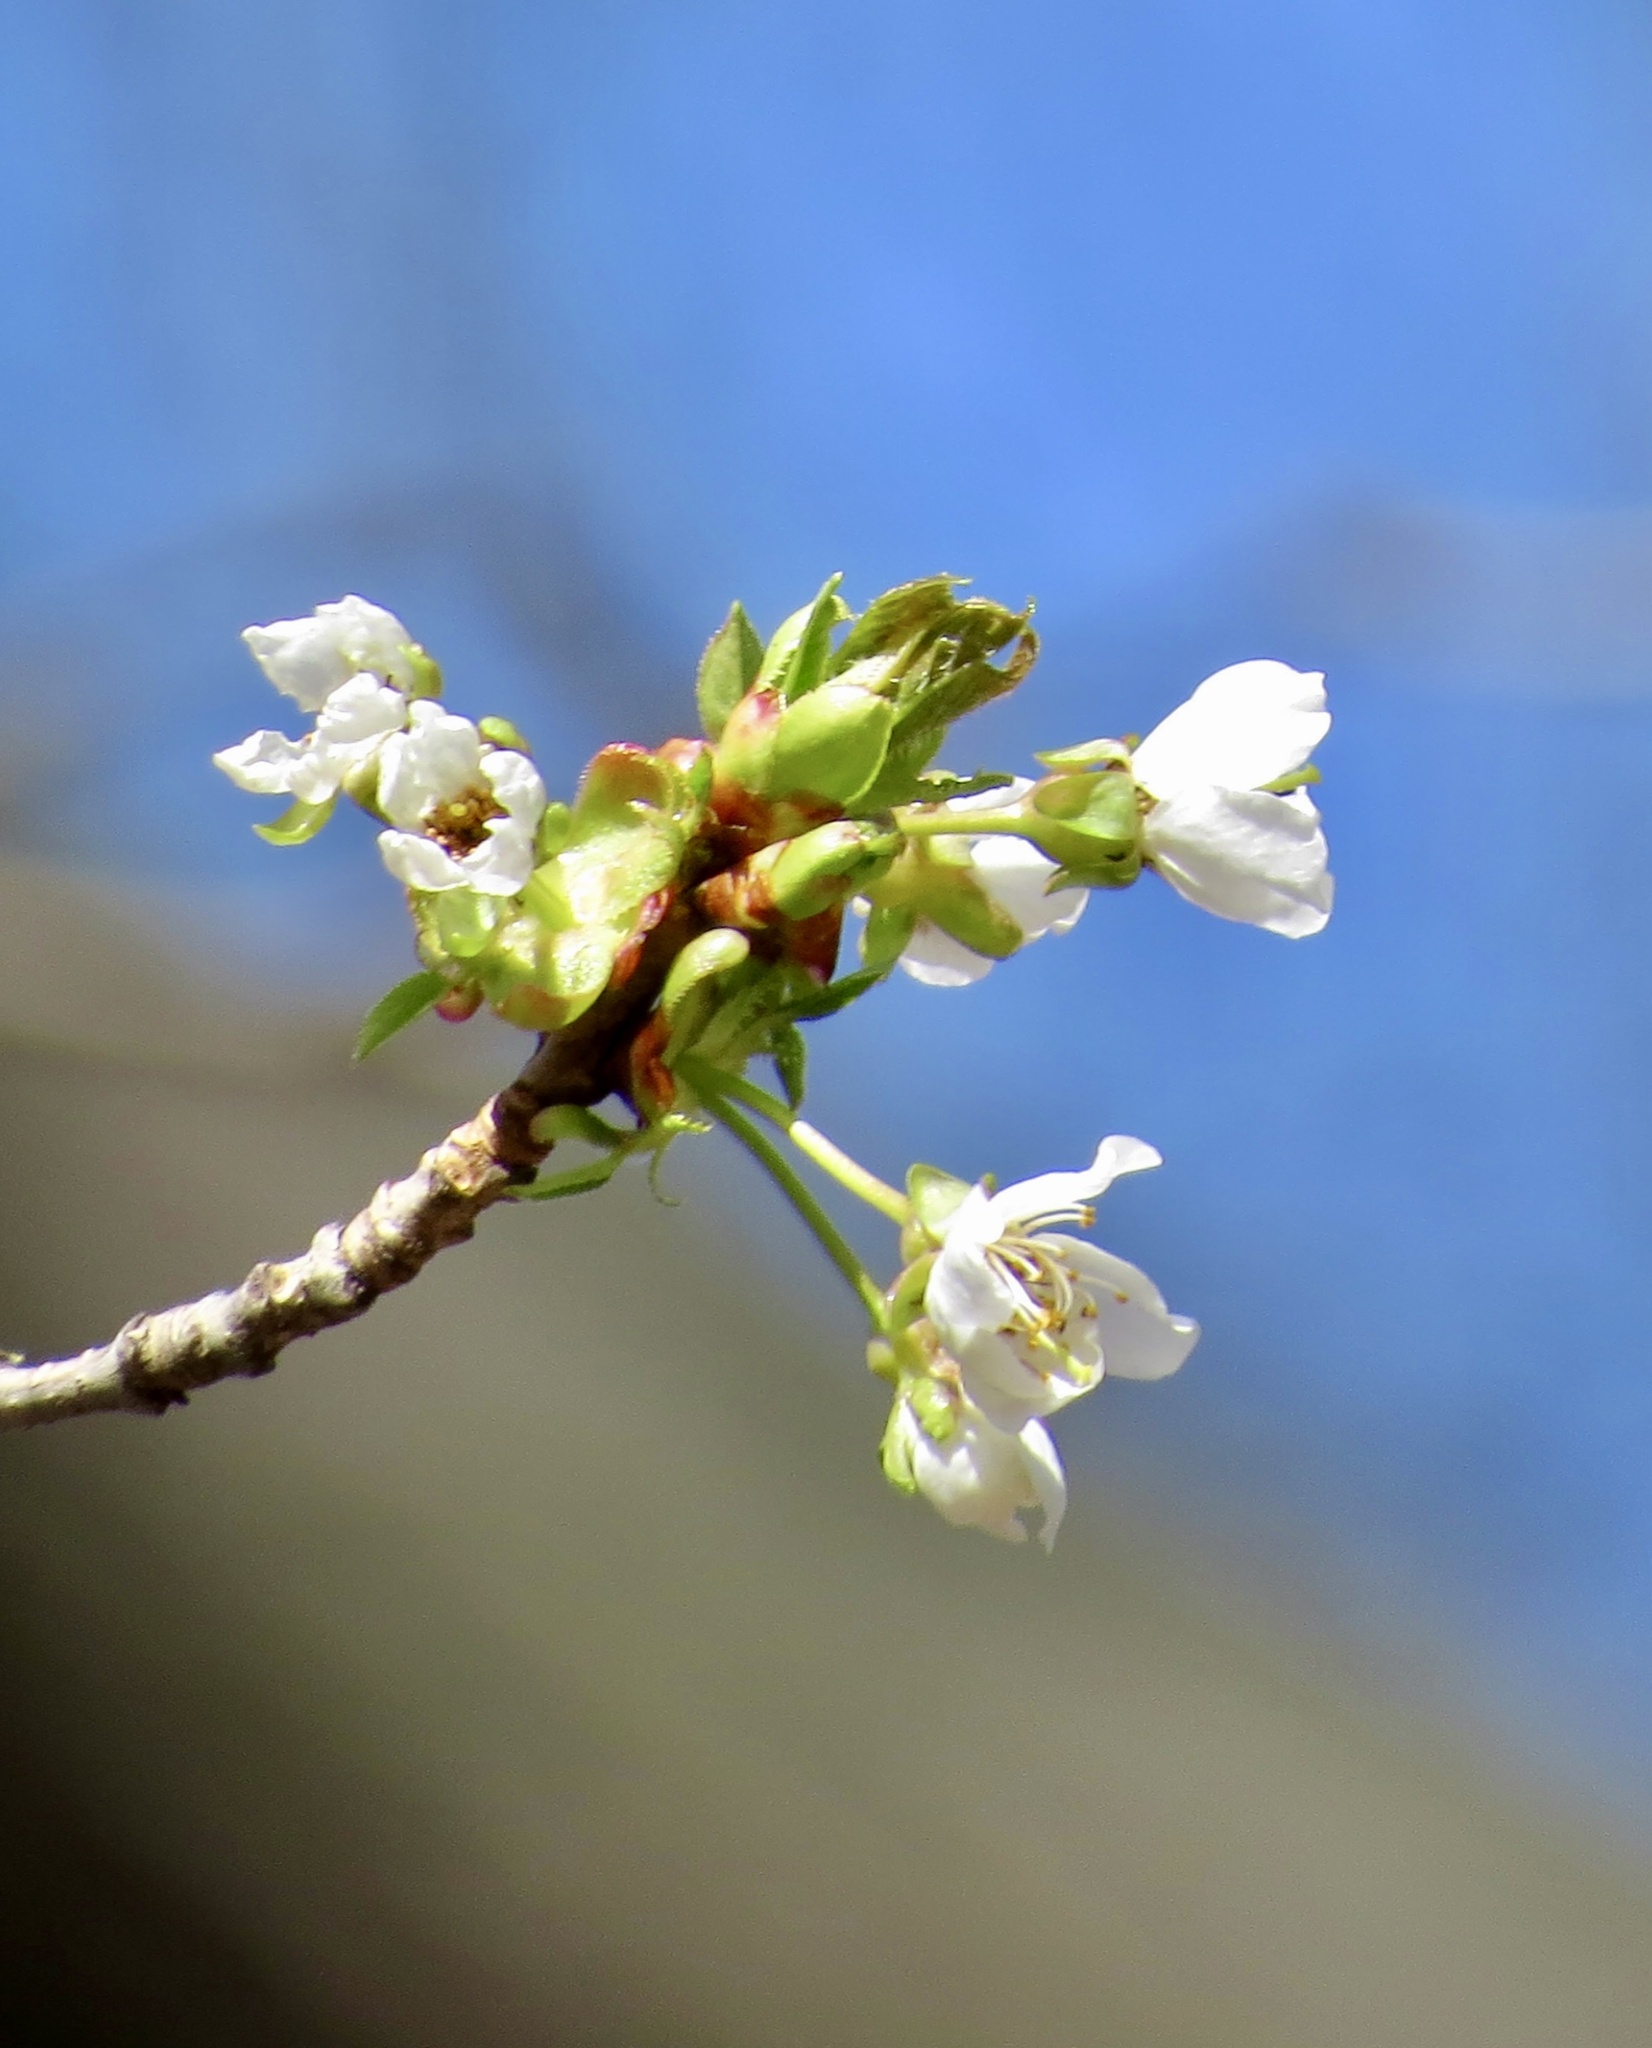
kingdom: Plantae
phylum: Tracheophyta
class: Magnoliopsida
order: Rosales
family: Rosaceae
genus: Prunus
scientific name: Prunus avium
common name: Sweet cherry
